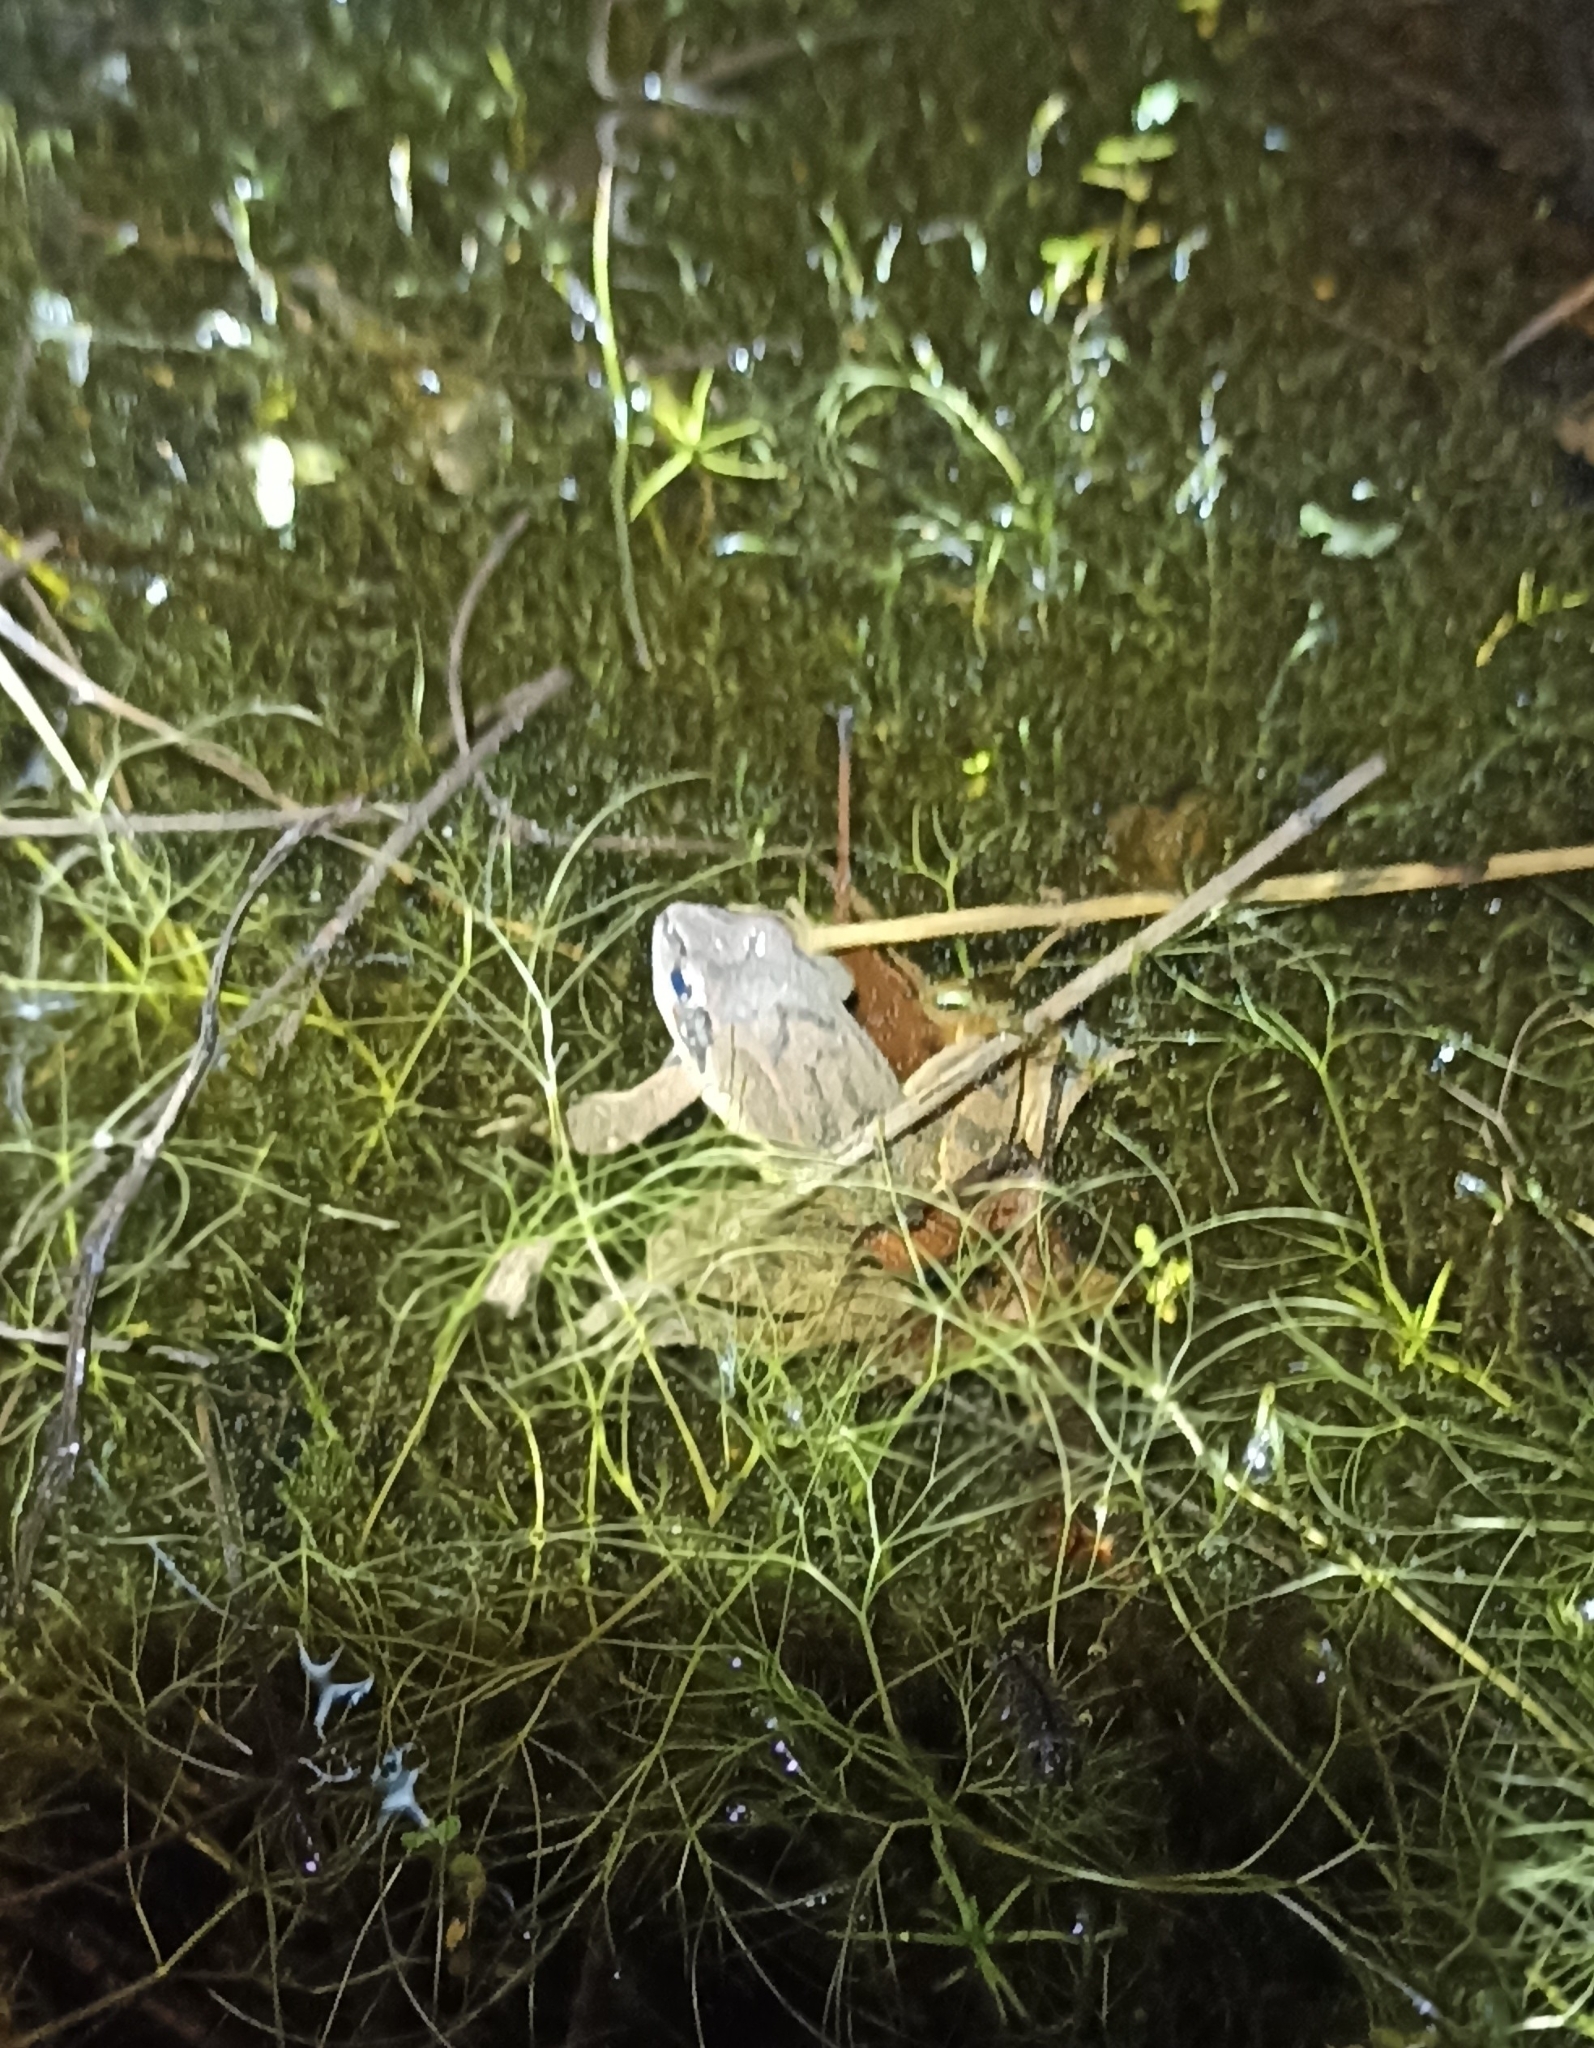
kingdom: Animalia
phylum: Chordata
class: Amphibia
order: Anura
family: Ranidae
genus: Rana
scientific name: Rana dalmatina
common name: Agile frog
